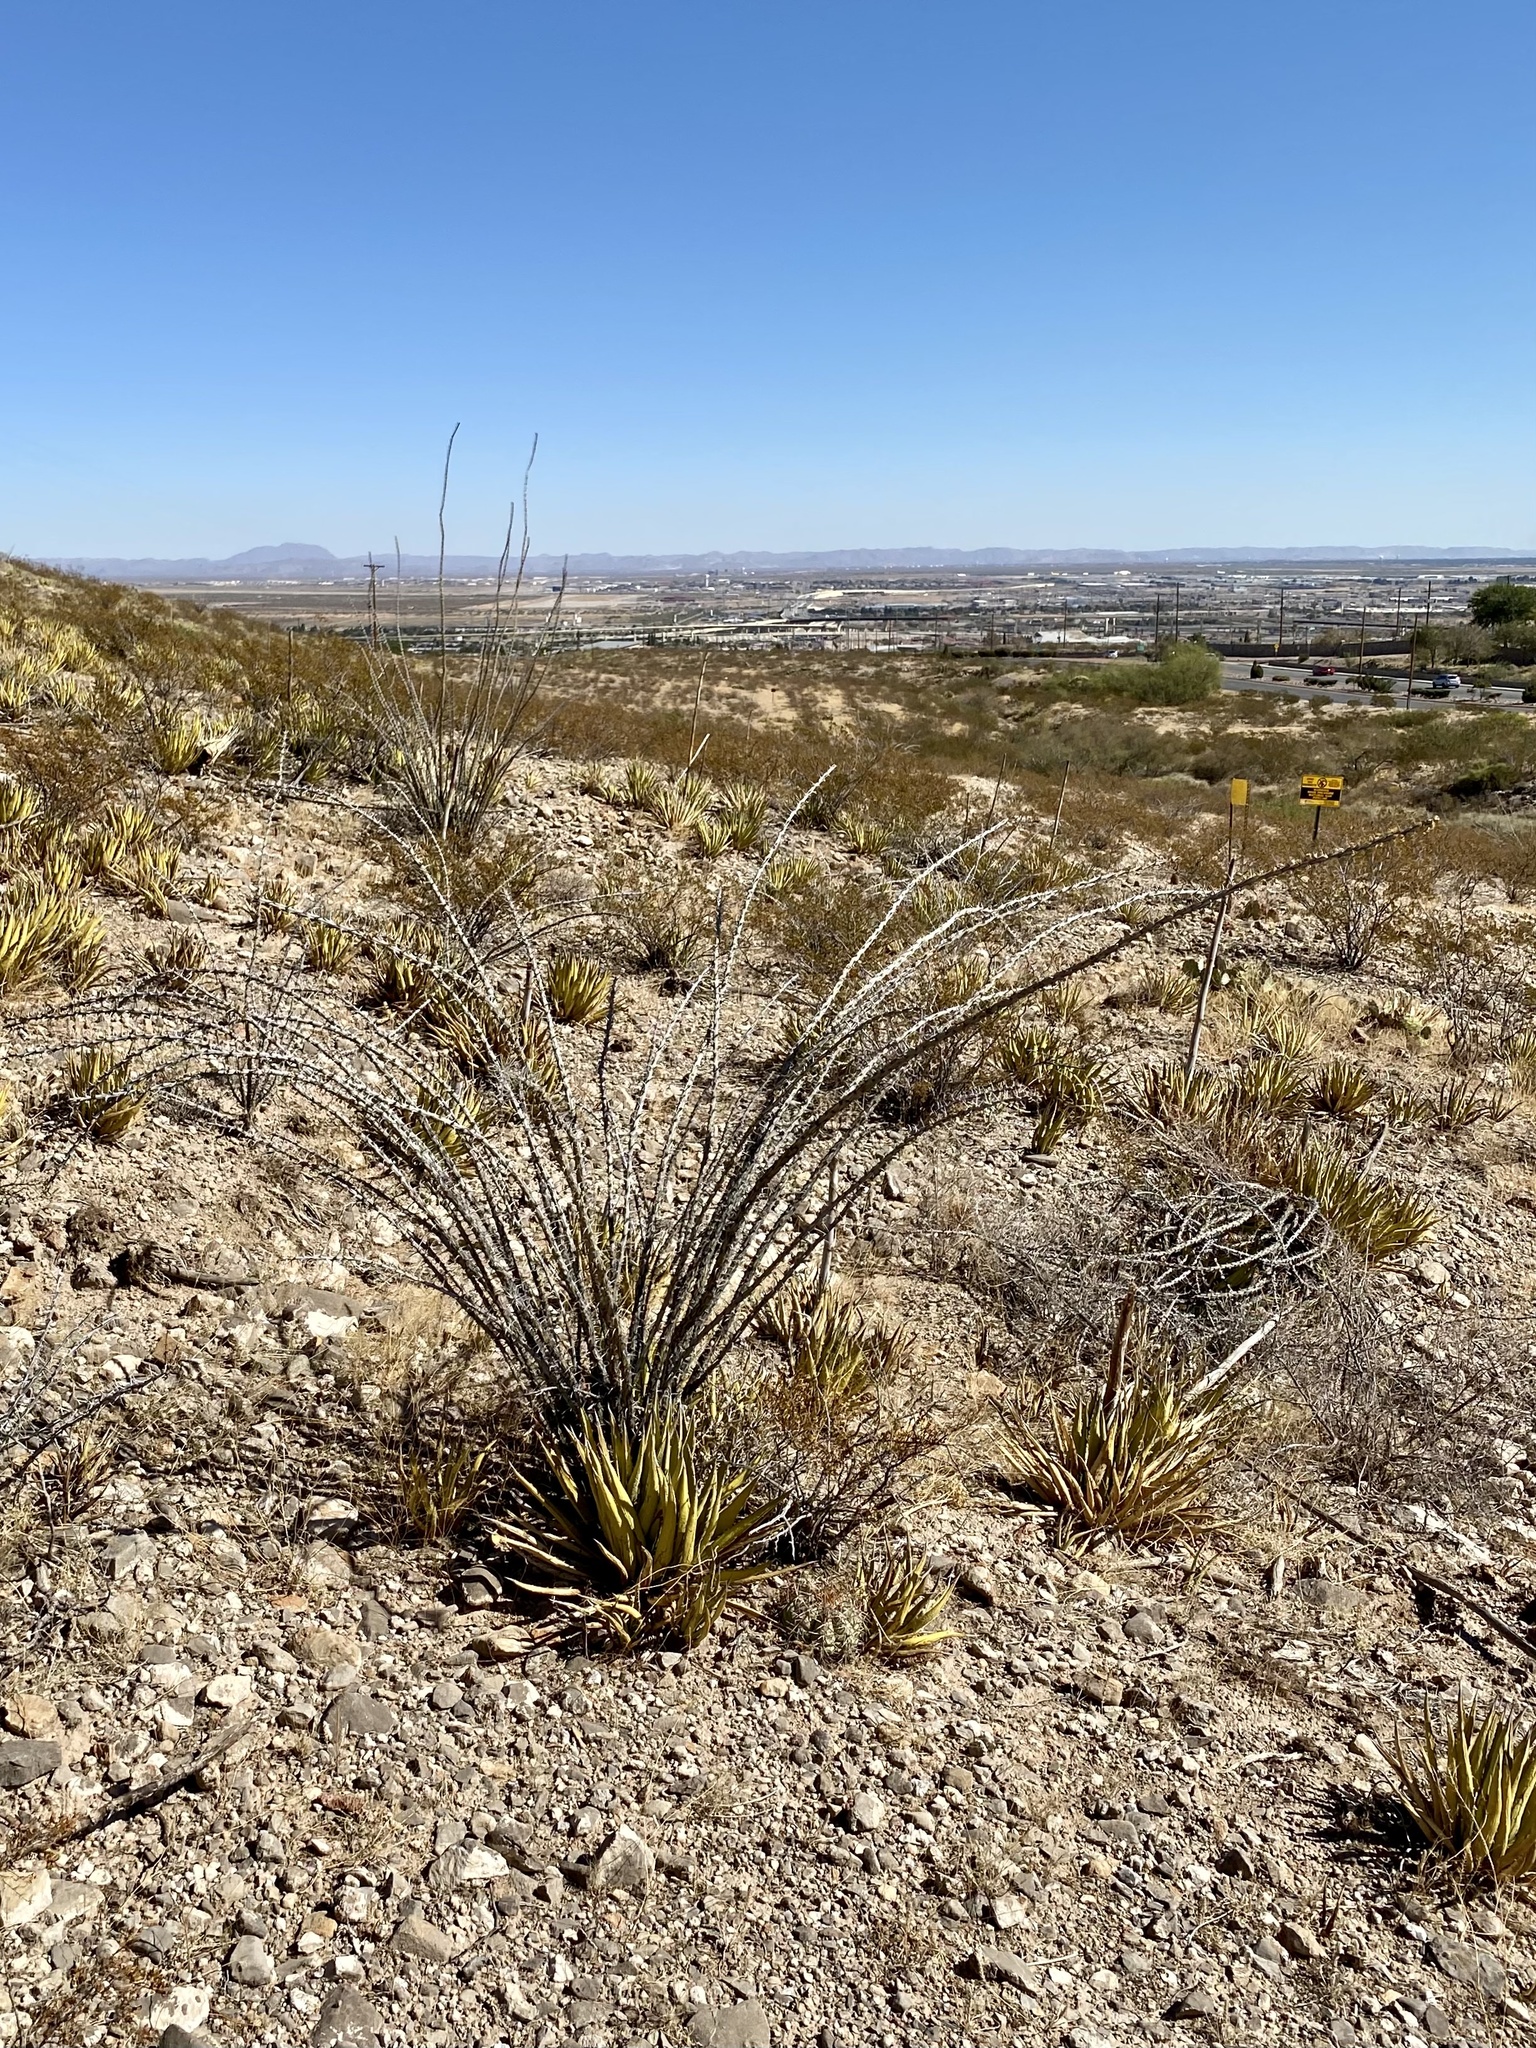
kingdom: Plantae
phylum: Tracheophyta
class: Magnoliopsida
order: Ericales
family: Fouquieriaceae
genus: Fouquieria
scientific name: Fouquieria splendens
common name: Vine-cactus
